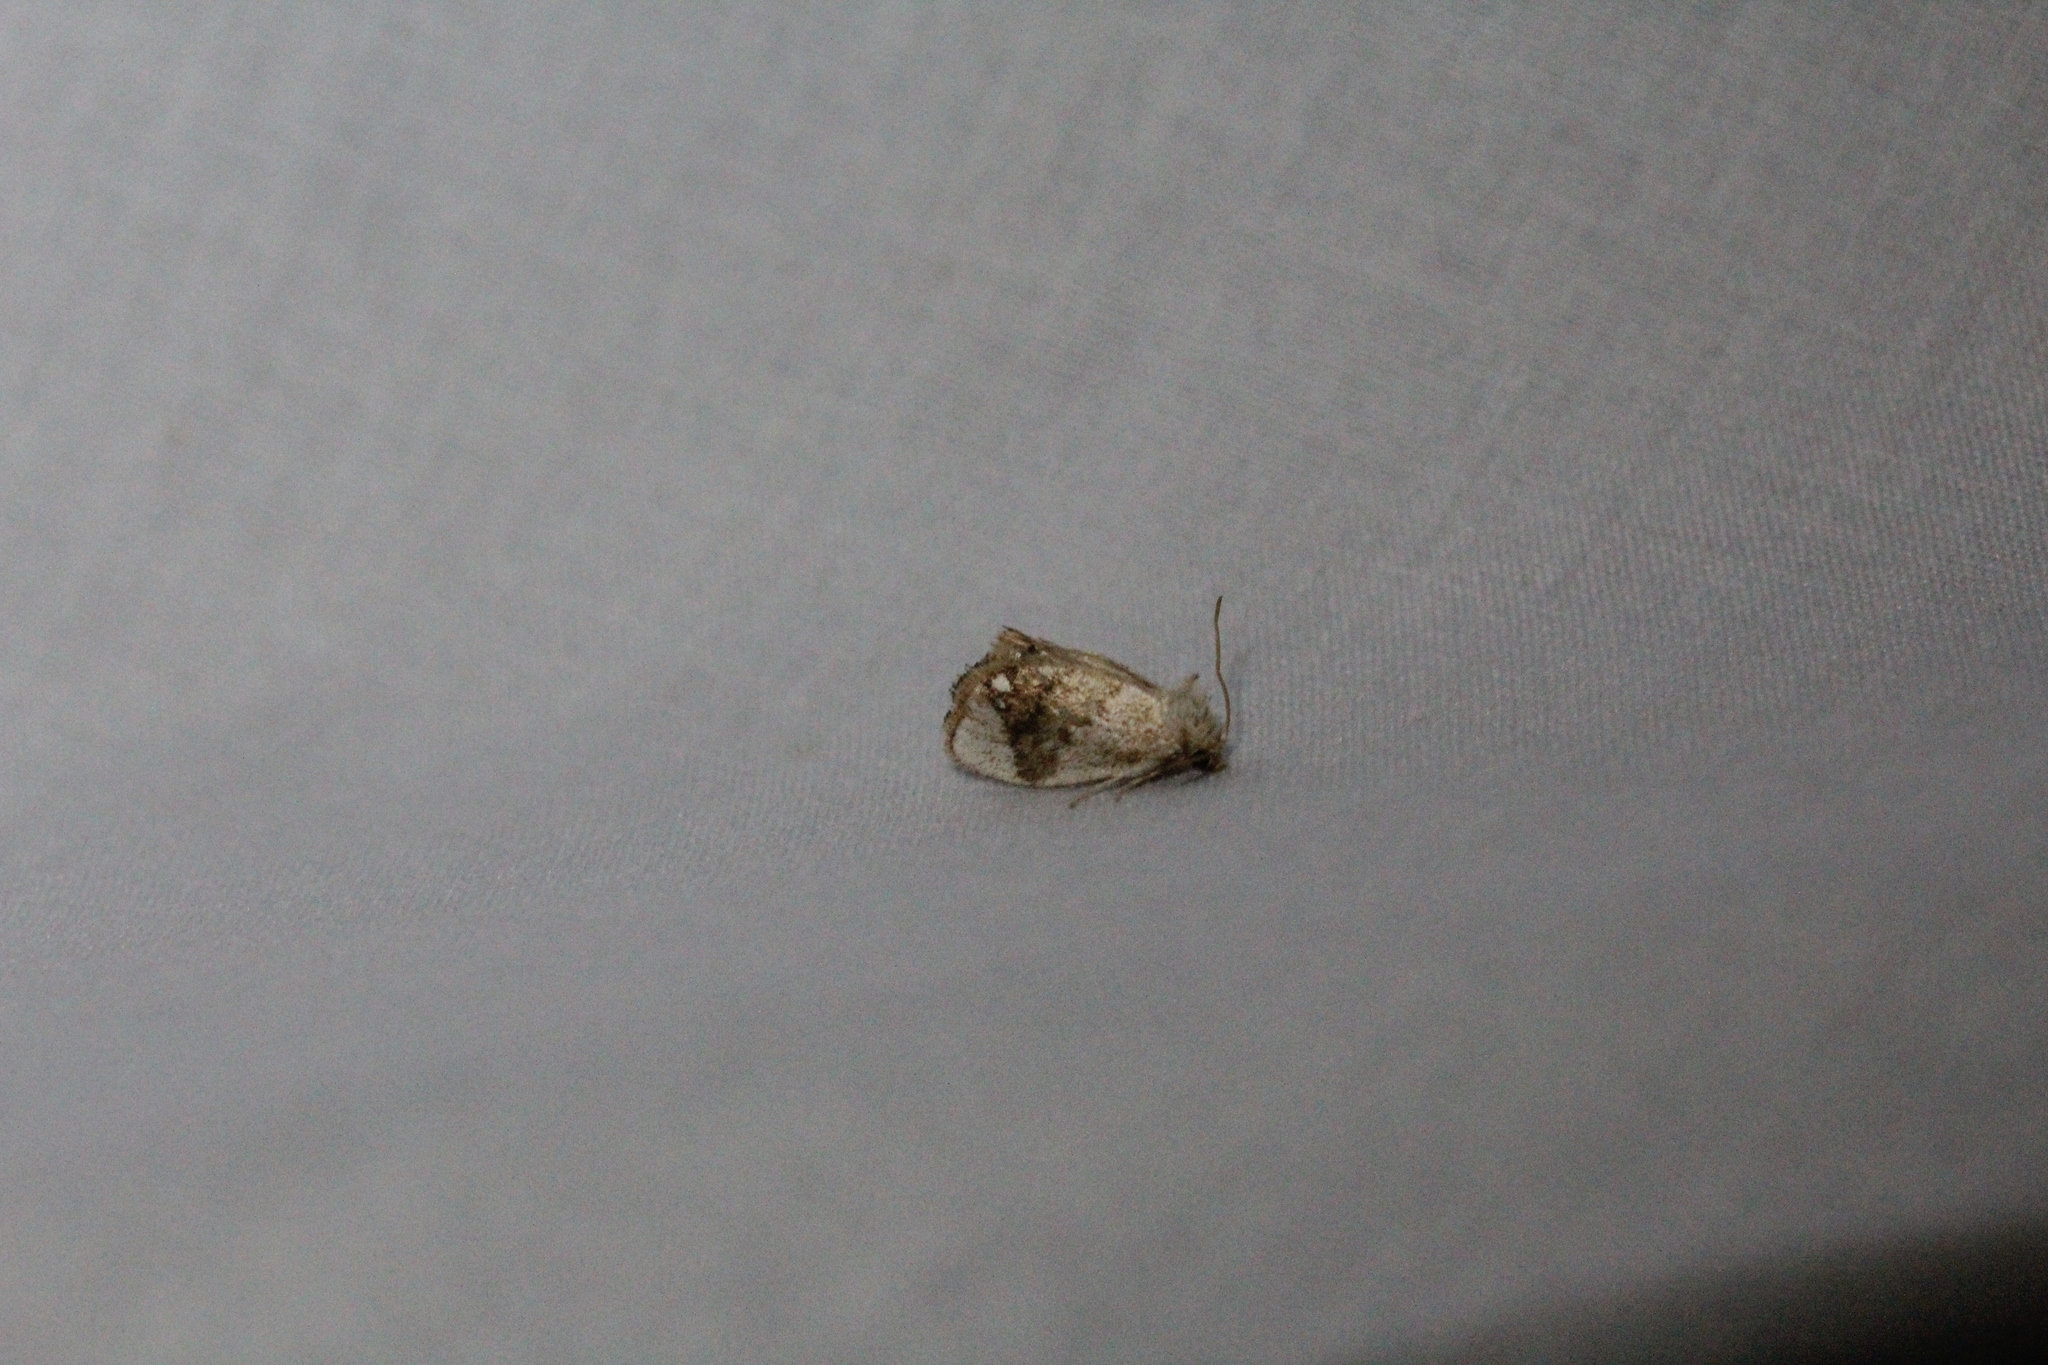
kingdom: Animalia
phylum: Arthropoda
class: Insecta
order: Lepidoptera
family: Limacodidae
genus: Packardia
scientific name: Packardia geminata
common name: Jeweled tailed slug moth
